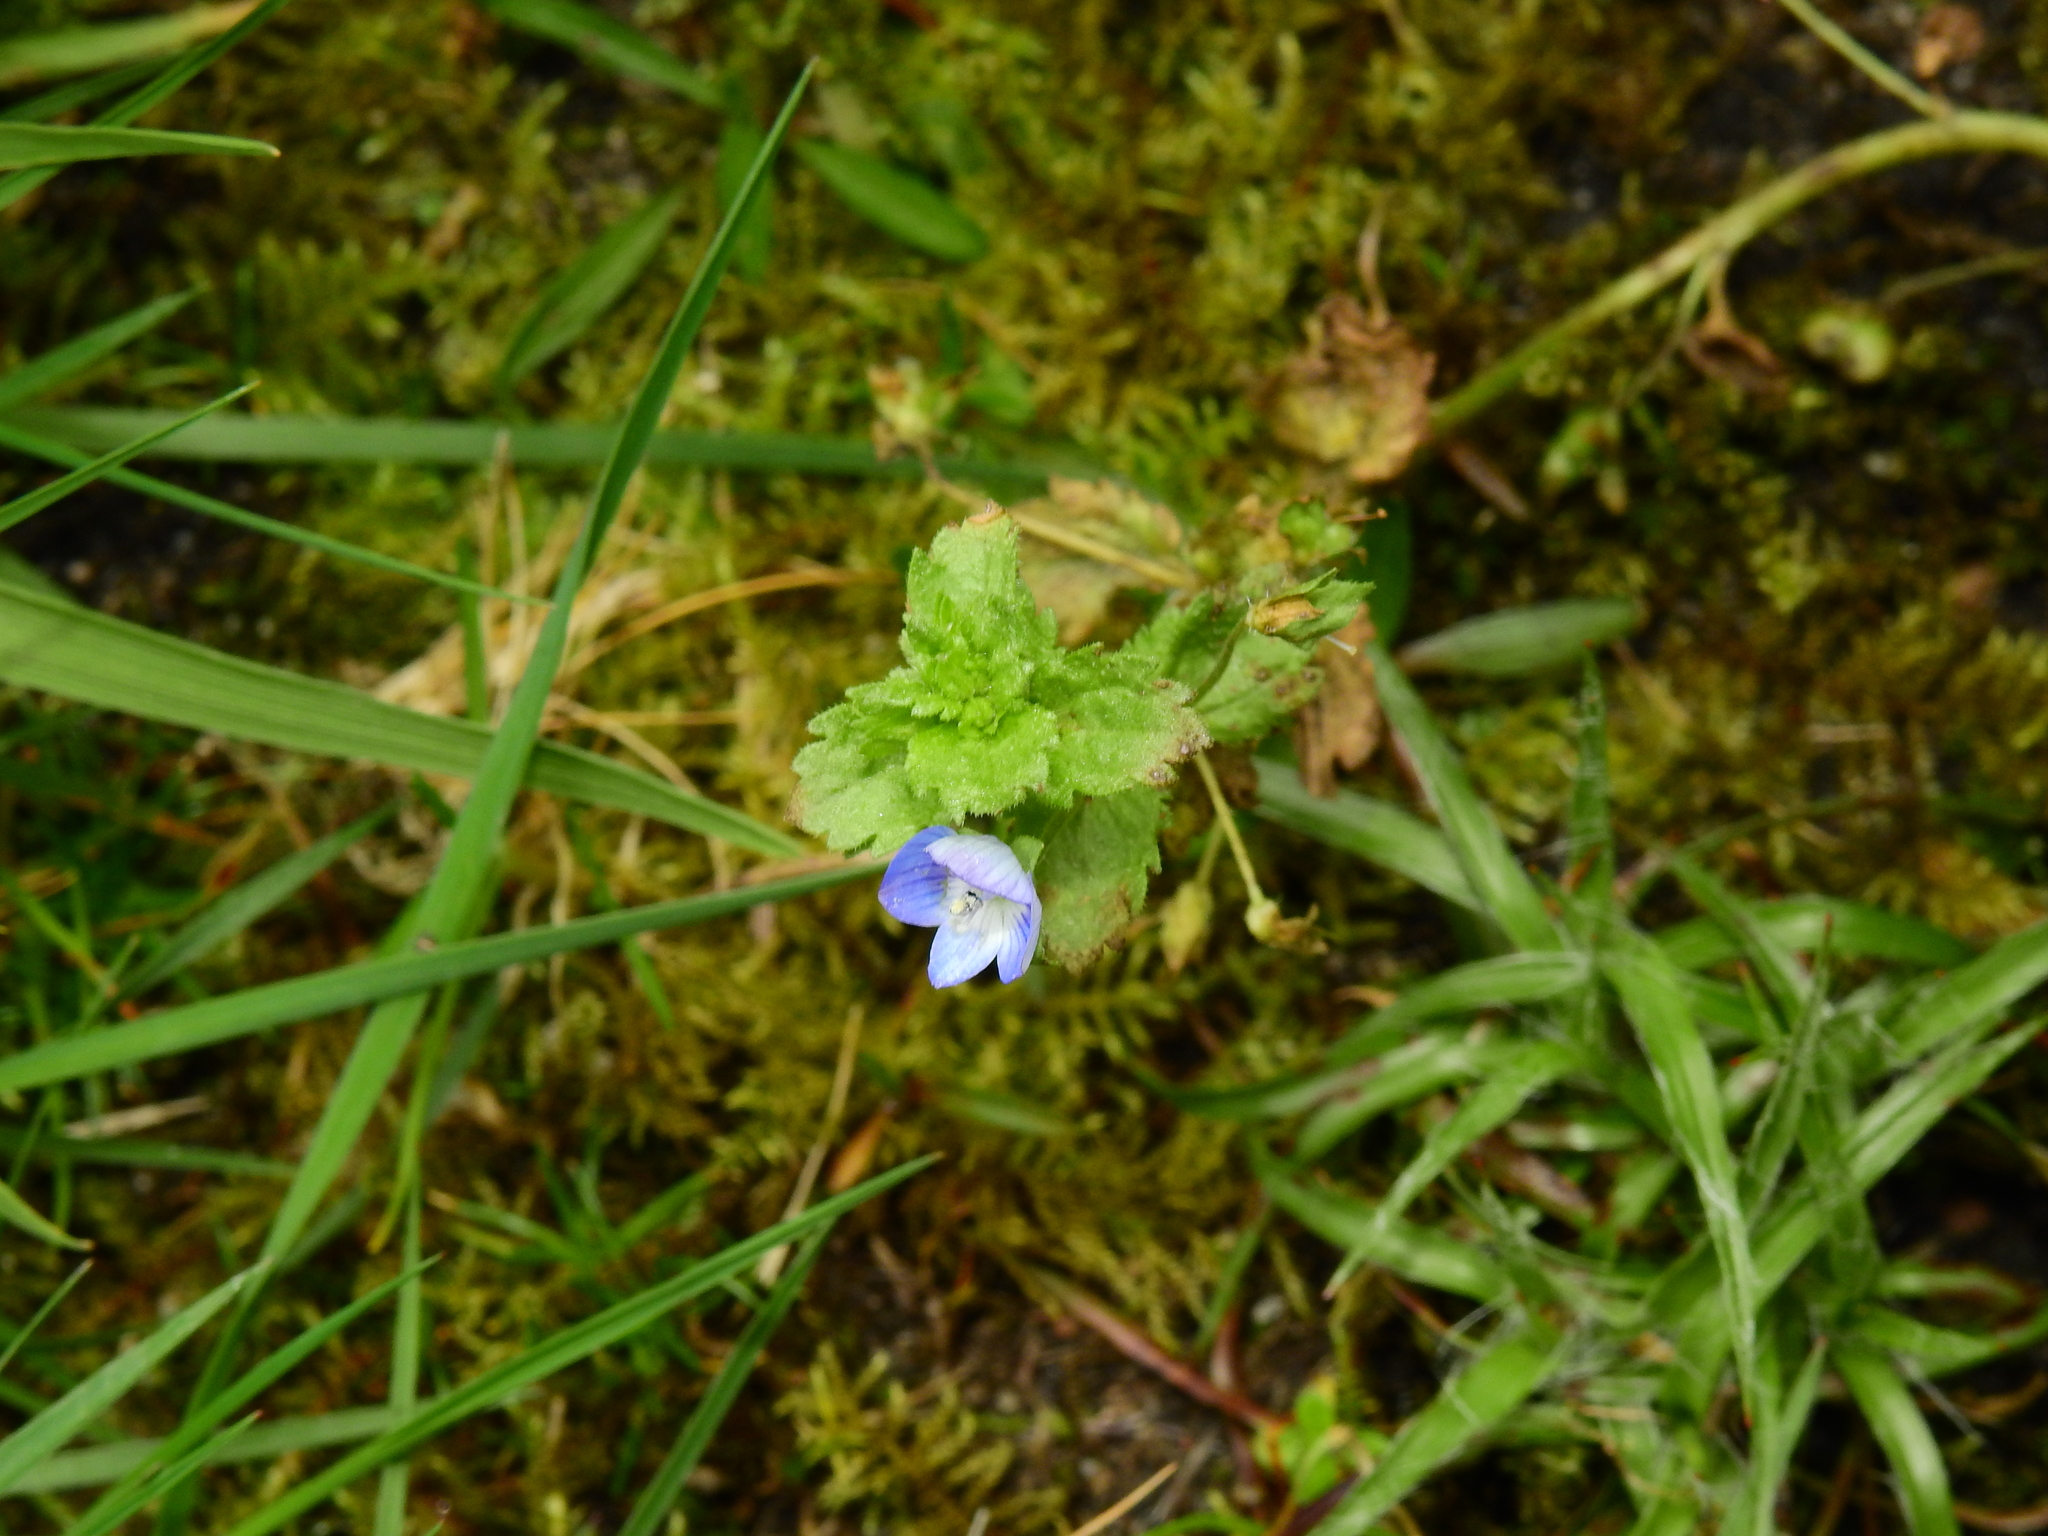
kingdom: Plantae
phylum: Tracheophyta
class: Magnoliopsida
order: Lamiales
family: Plantaginaceae
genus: Veronica
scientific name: Veronica persica
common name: Common field-speedwell
